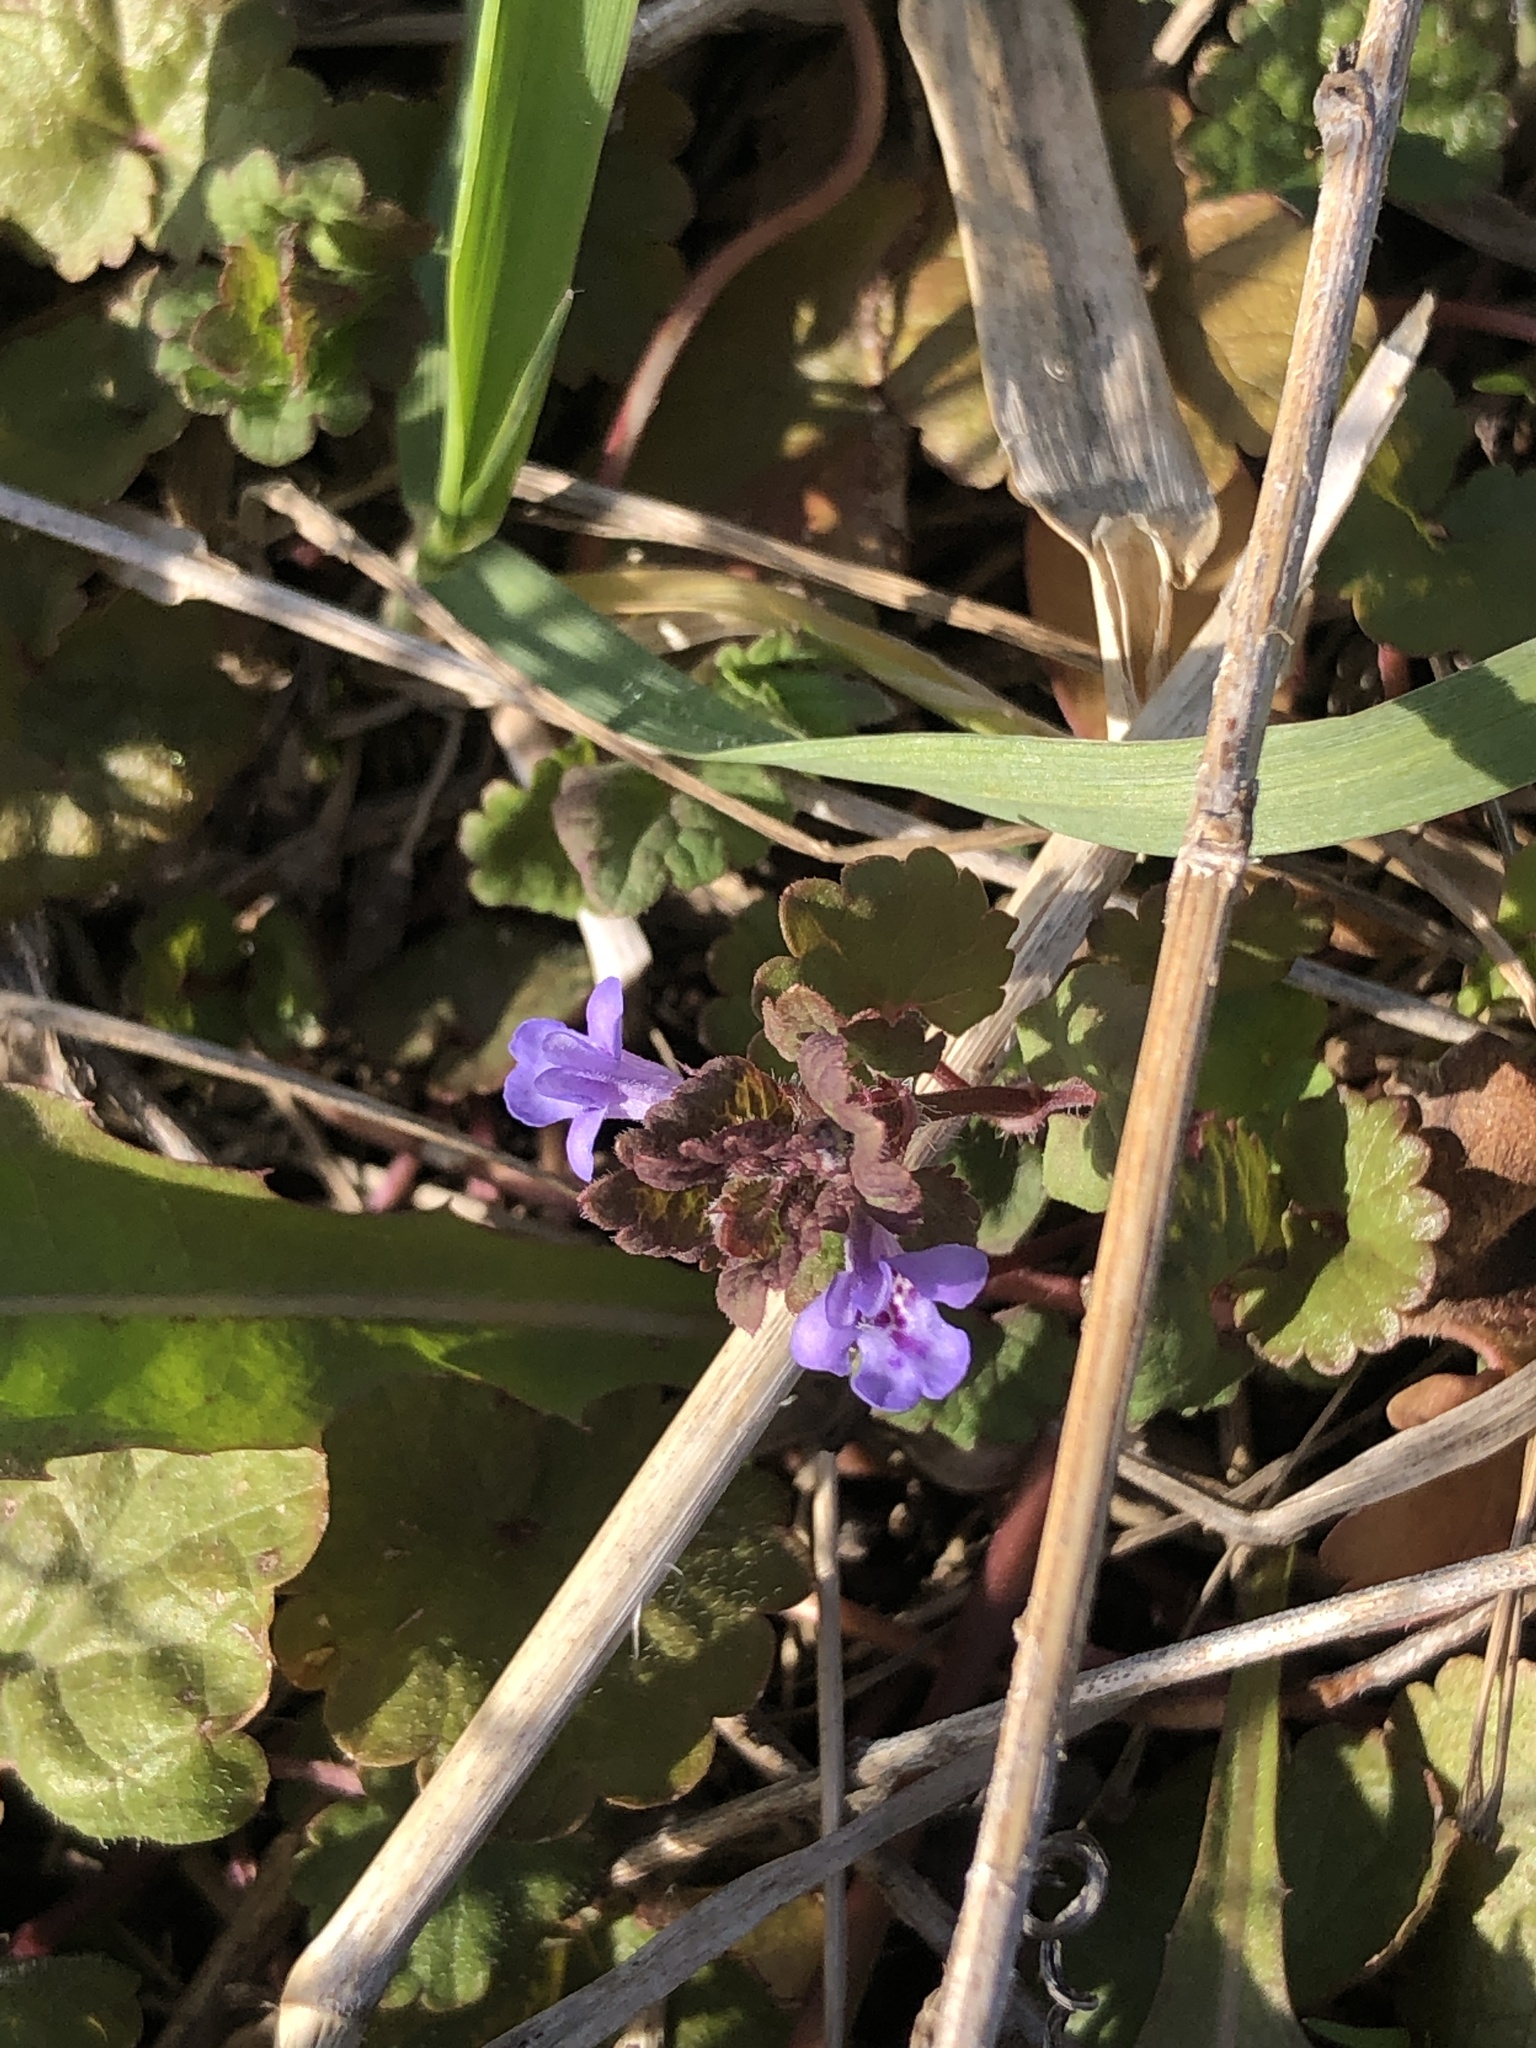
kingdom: Plantae
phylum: Tracheophyta
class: Magnoliopsida
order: Lamiales
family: Lamiaceae
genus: Glechoma
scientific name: Glechoma hederacea
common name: Ground ivy
